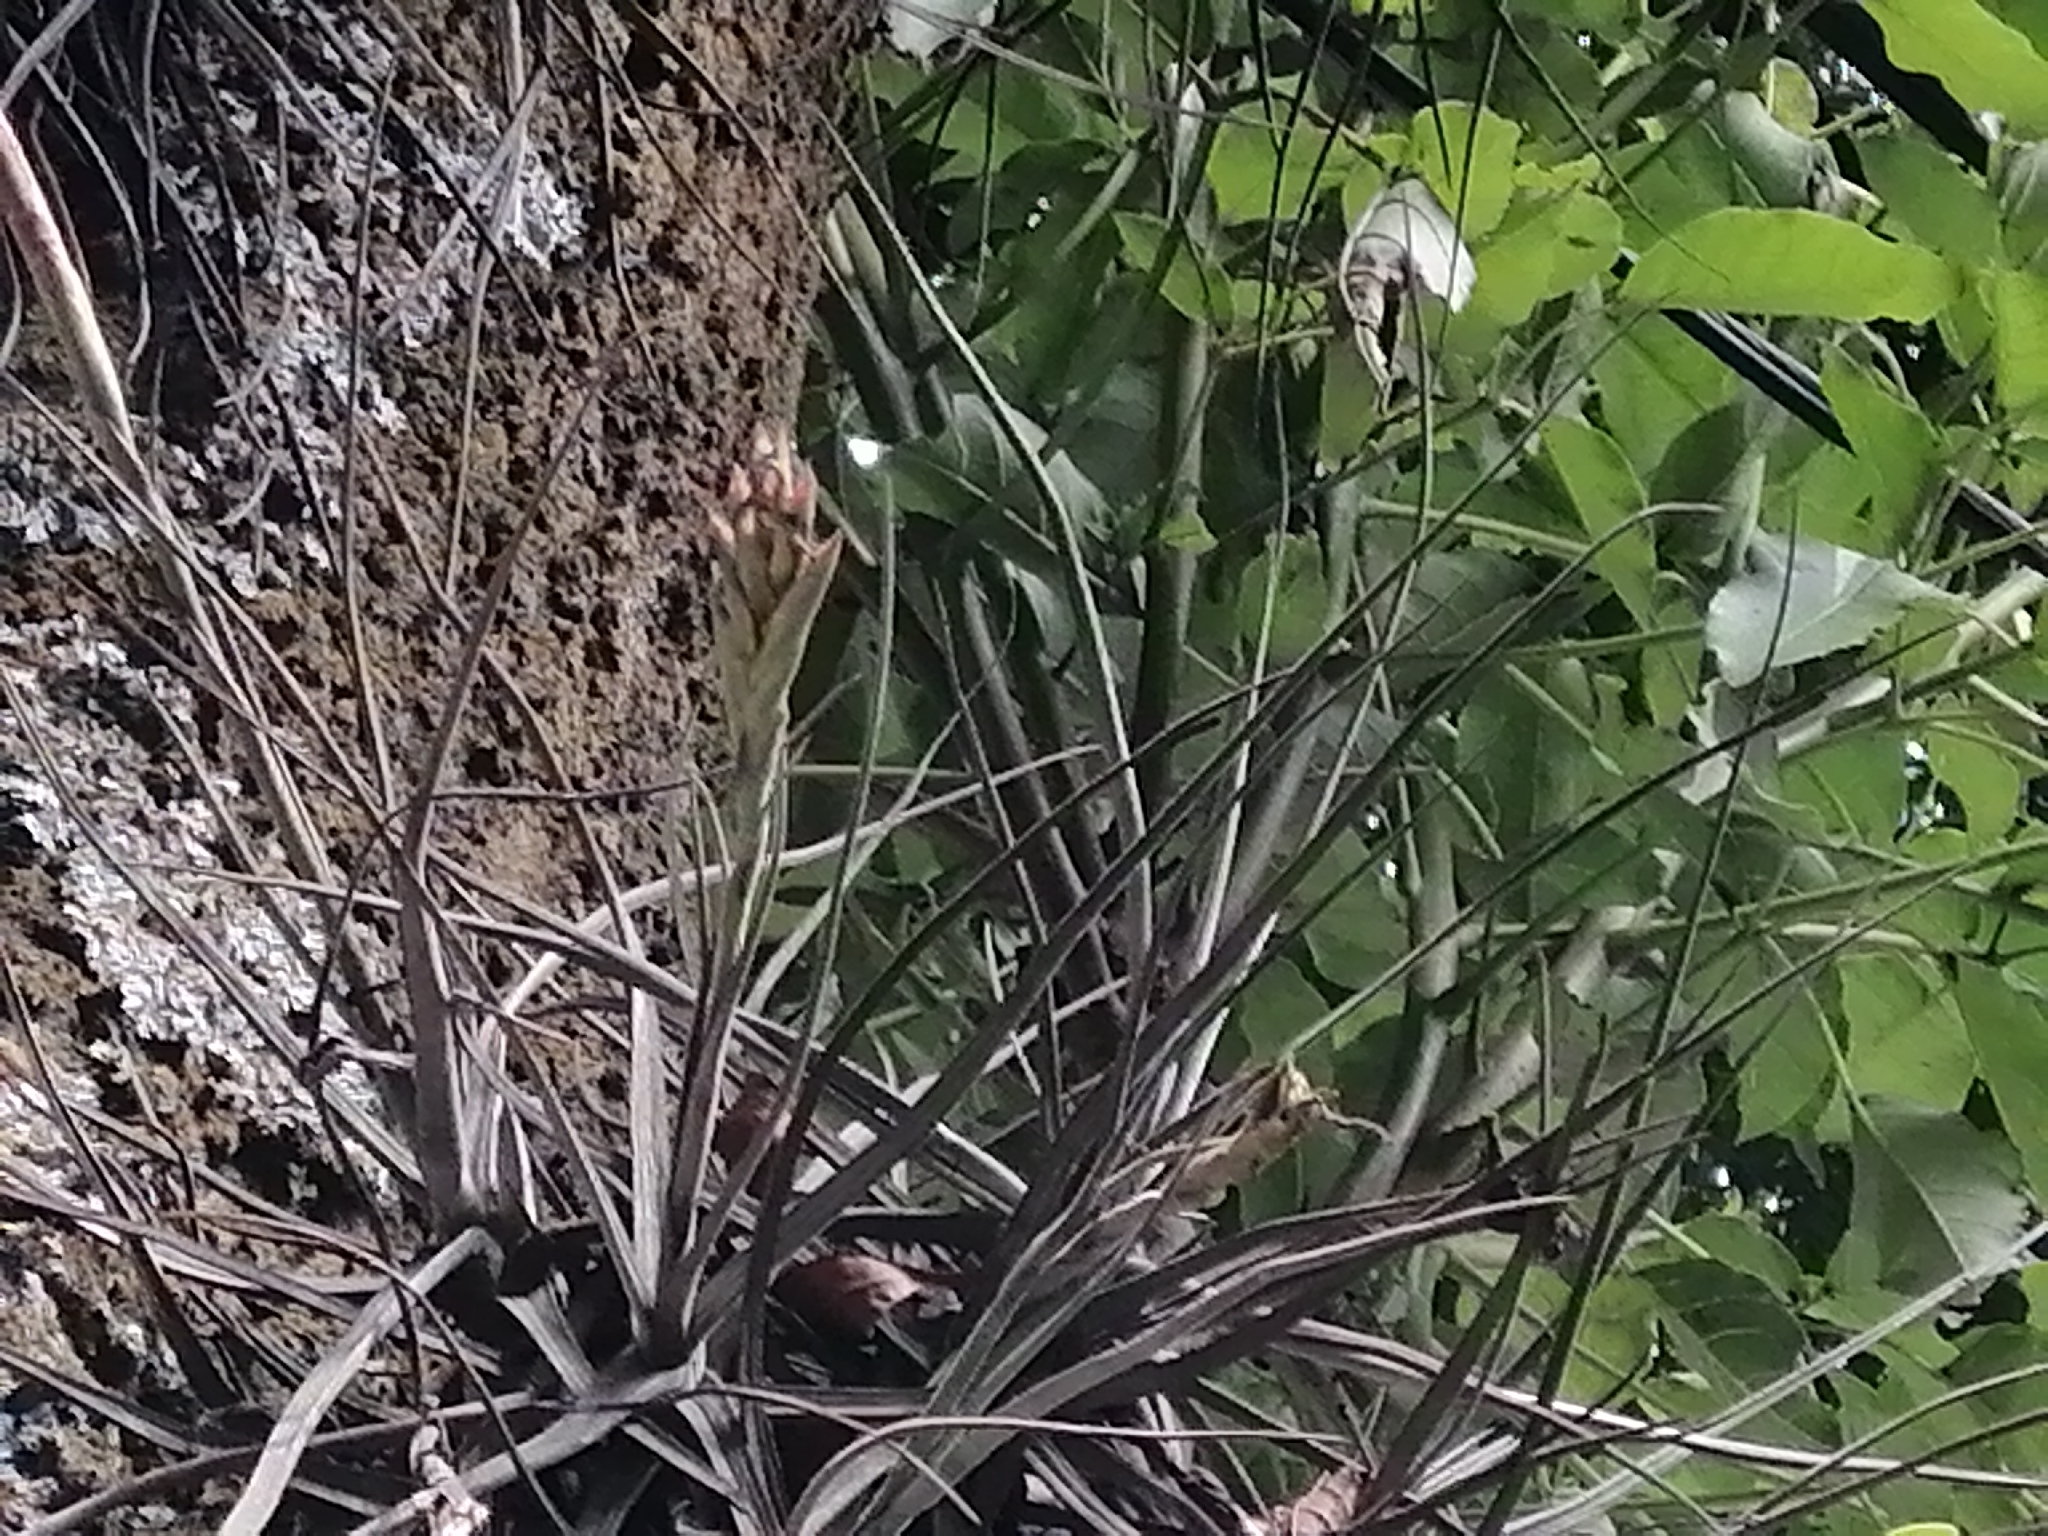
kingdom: Plantae
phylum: Tracheophyta
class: Liliopsida
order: Poales
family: Bromeliaceae
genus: Tillandsia
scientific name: Tillandsia schiedeana
